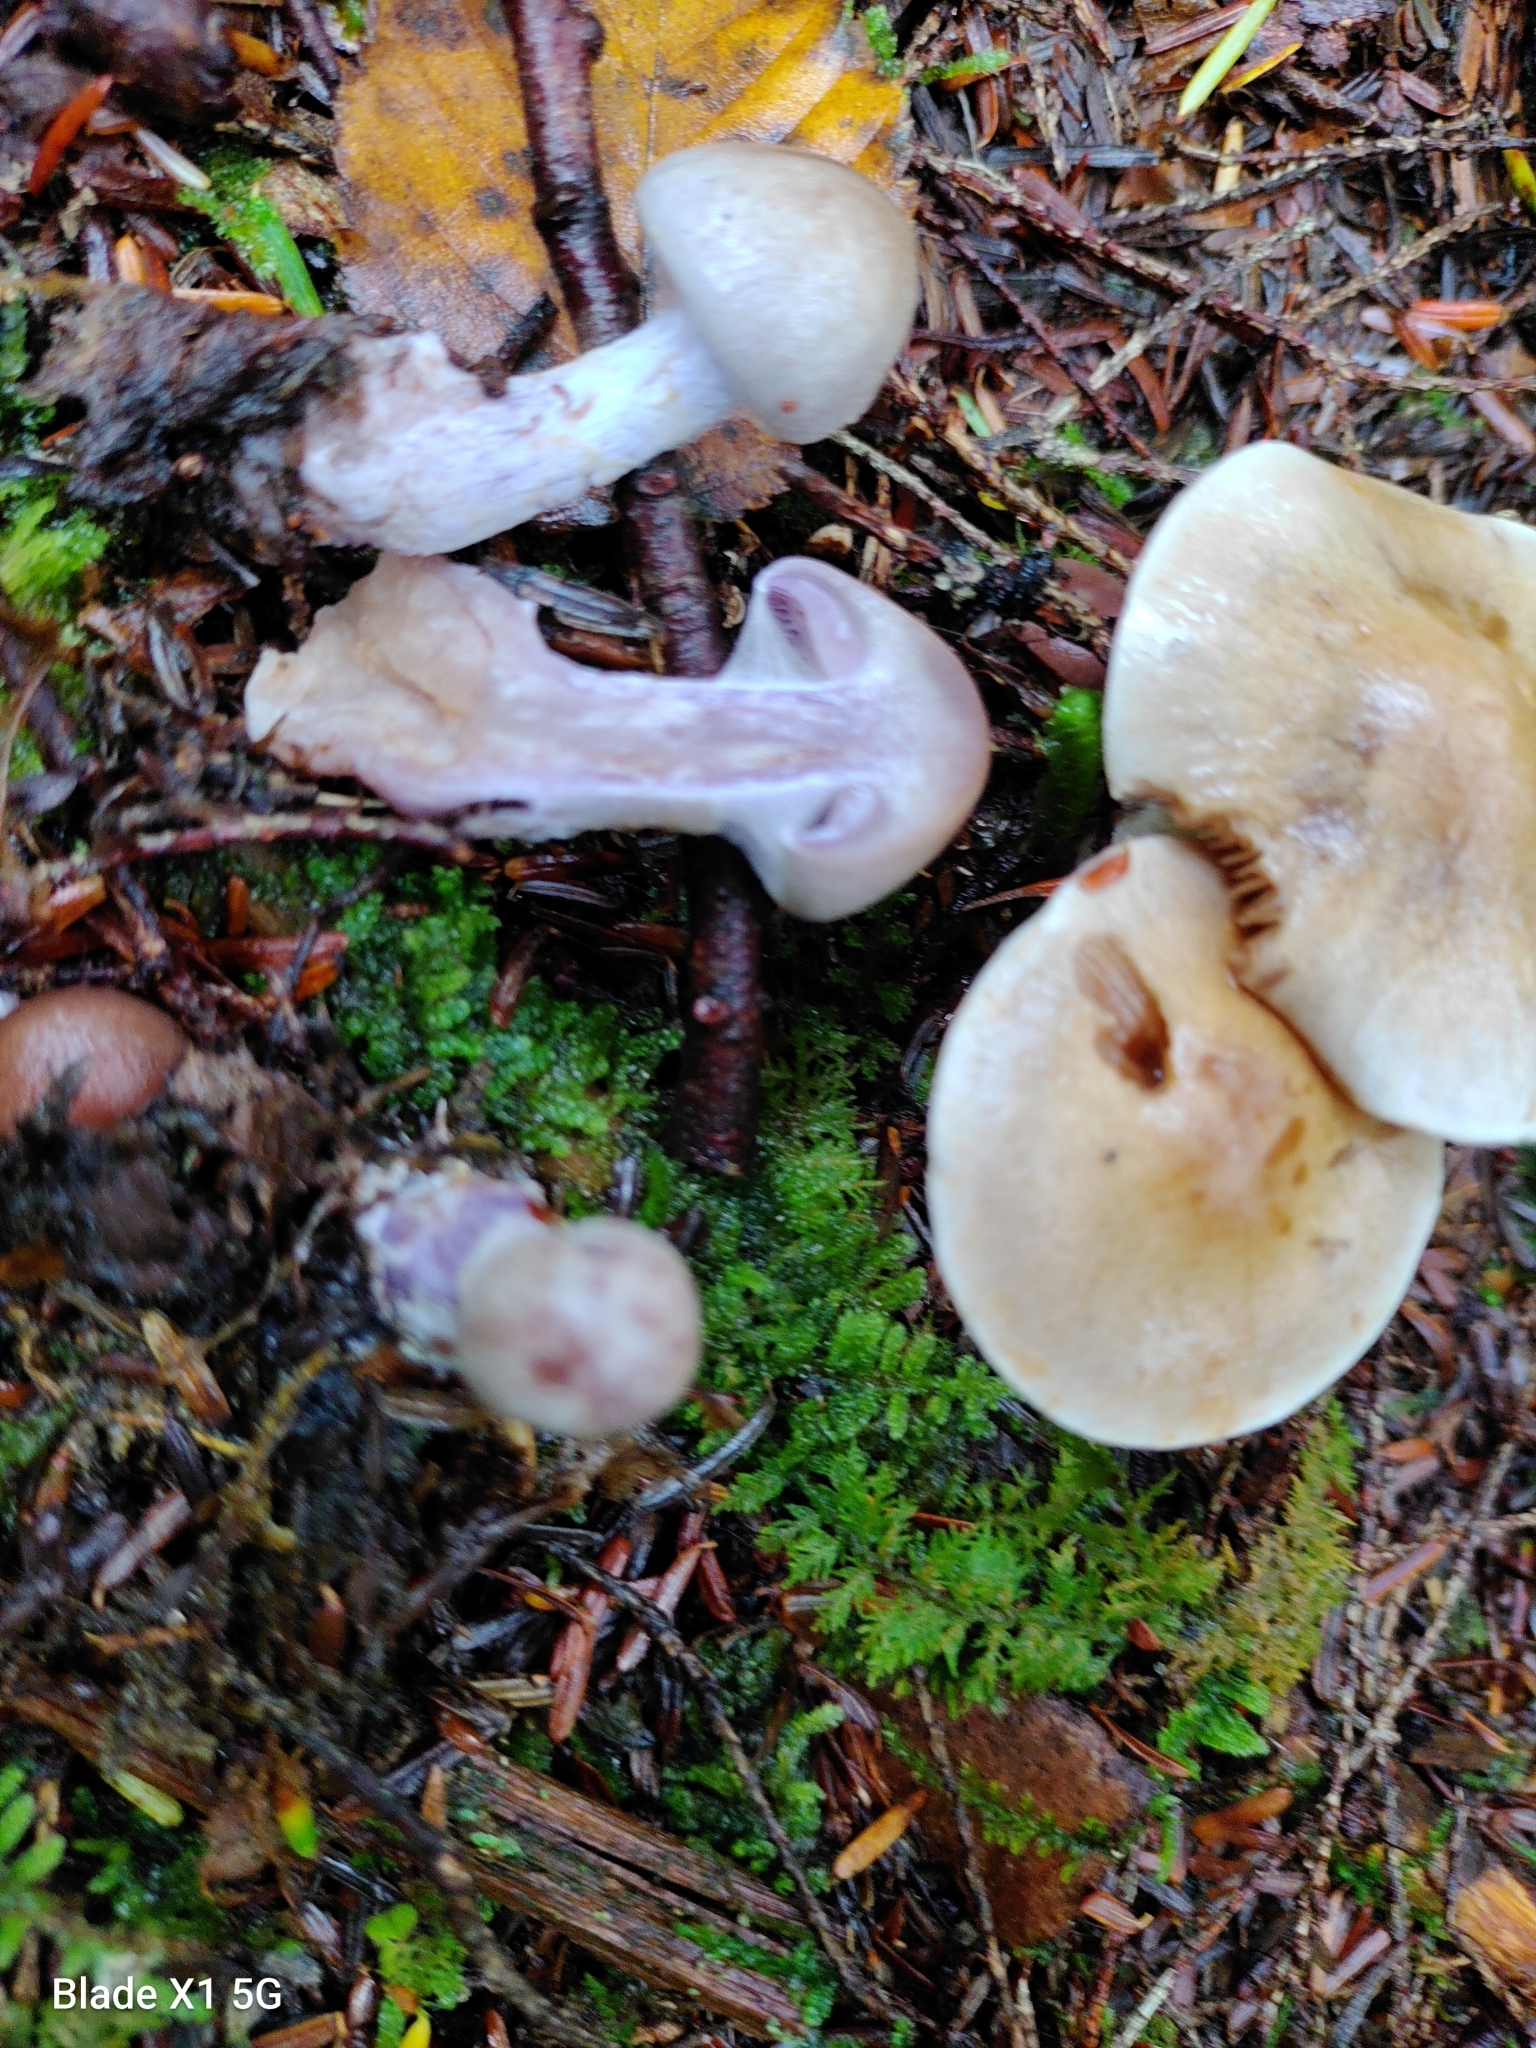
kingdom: Fungi
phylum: Basidiomycota
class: Agaricomycetes
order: Agaricales
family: Cortinariaceae
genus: Cortinarius
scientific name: Cortinarius clintonianus
